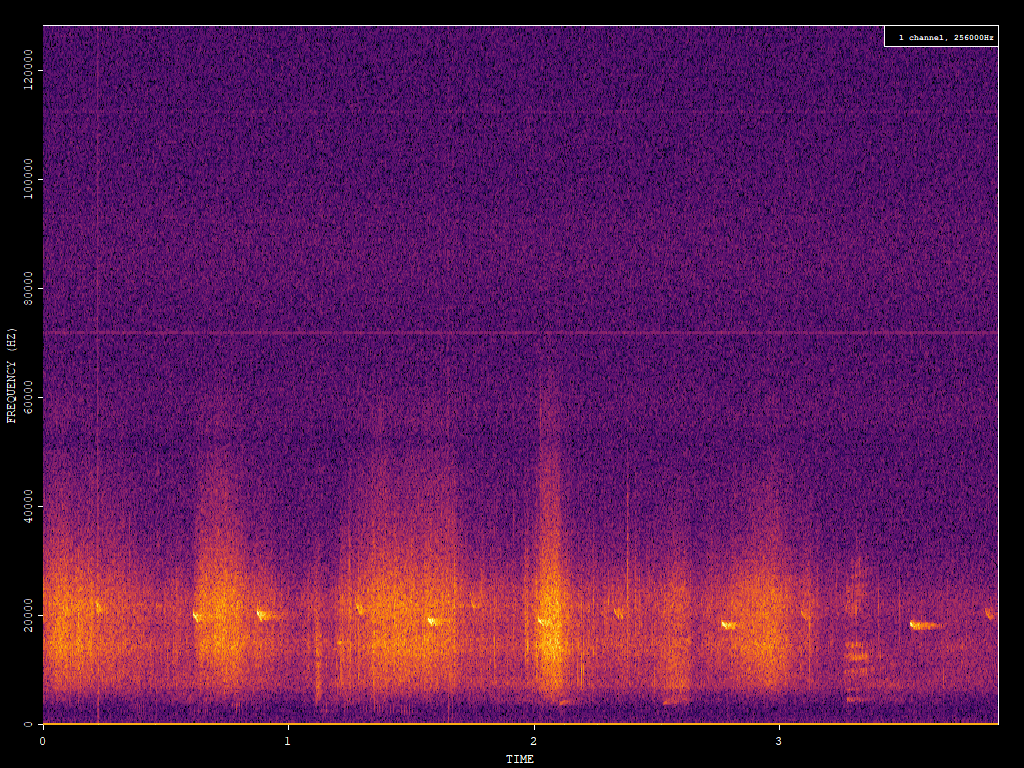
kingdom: Animalia
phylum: Chordata
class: Mammalia
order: Chiroptera
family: Vespertilionidae
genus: Nyctalus
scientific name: Nyctalus noctula
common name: Noctule
